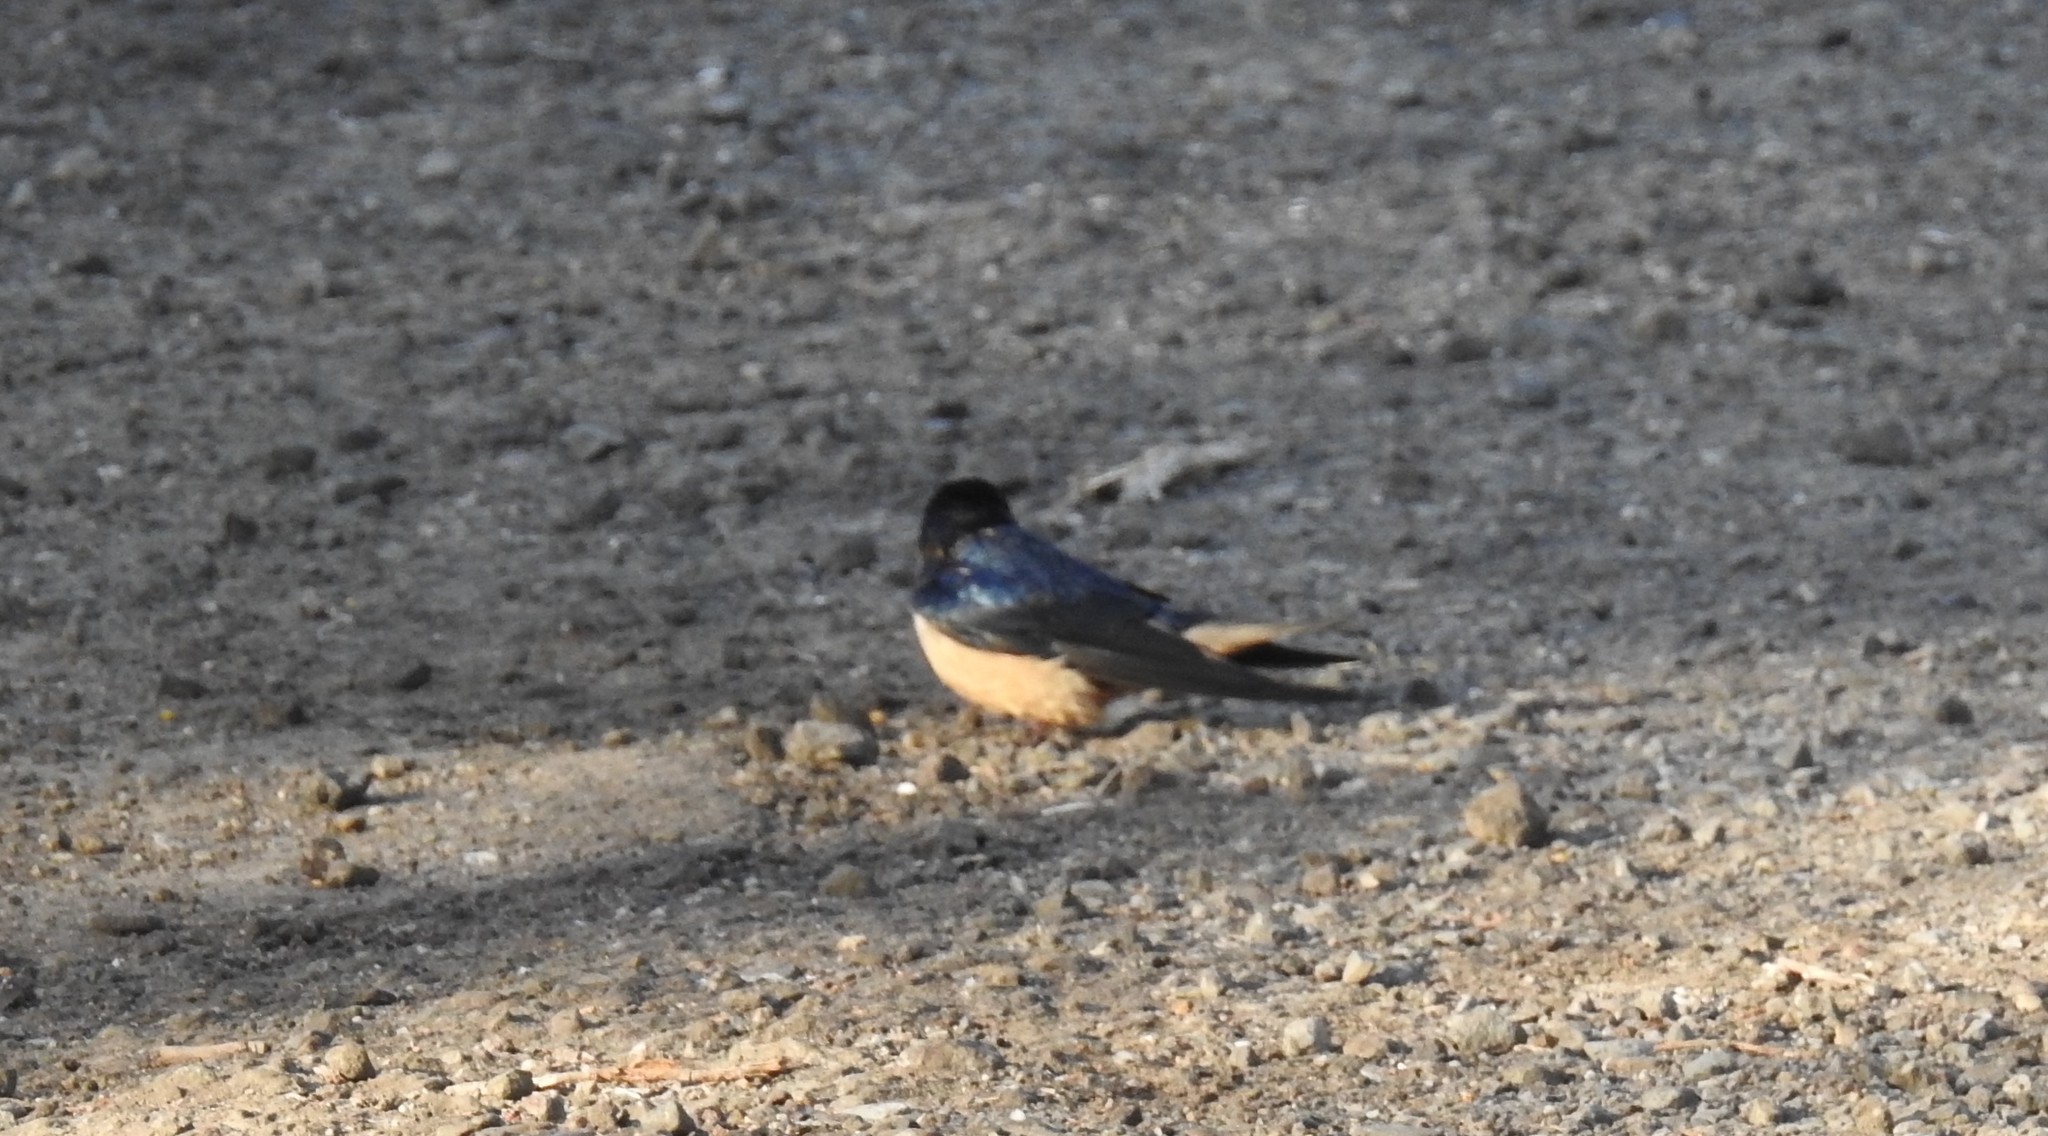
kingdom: Animalia
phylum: Chordata
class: Aves
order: Passeriformes
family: Hirundinidae
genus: Hirundo
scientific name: Hirundo rustica
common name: Barn swallow
